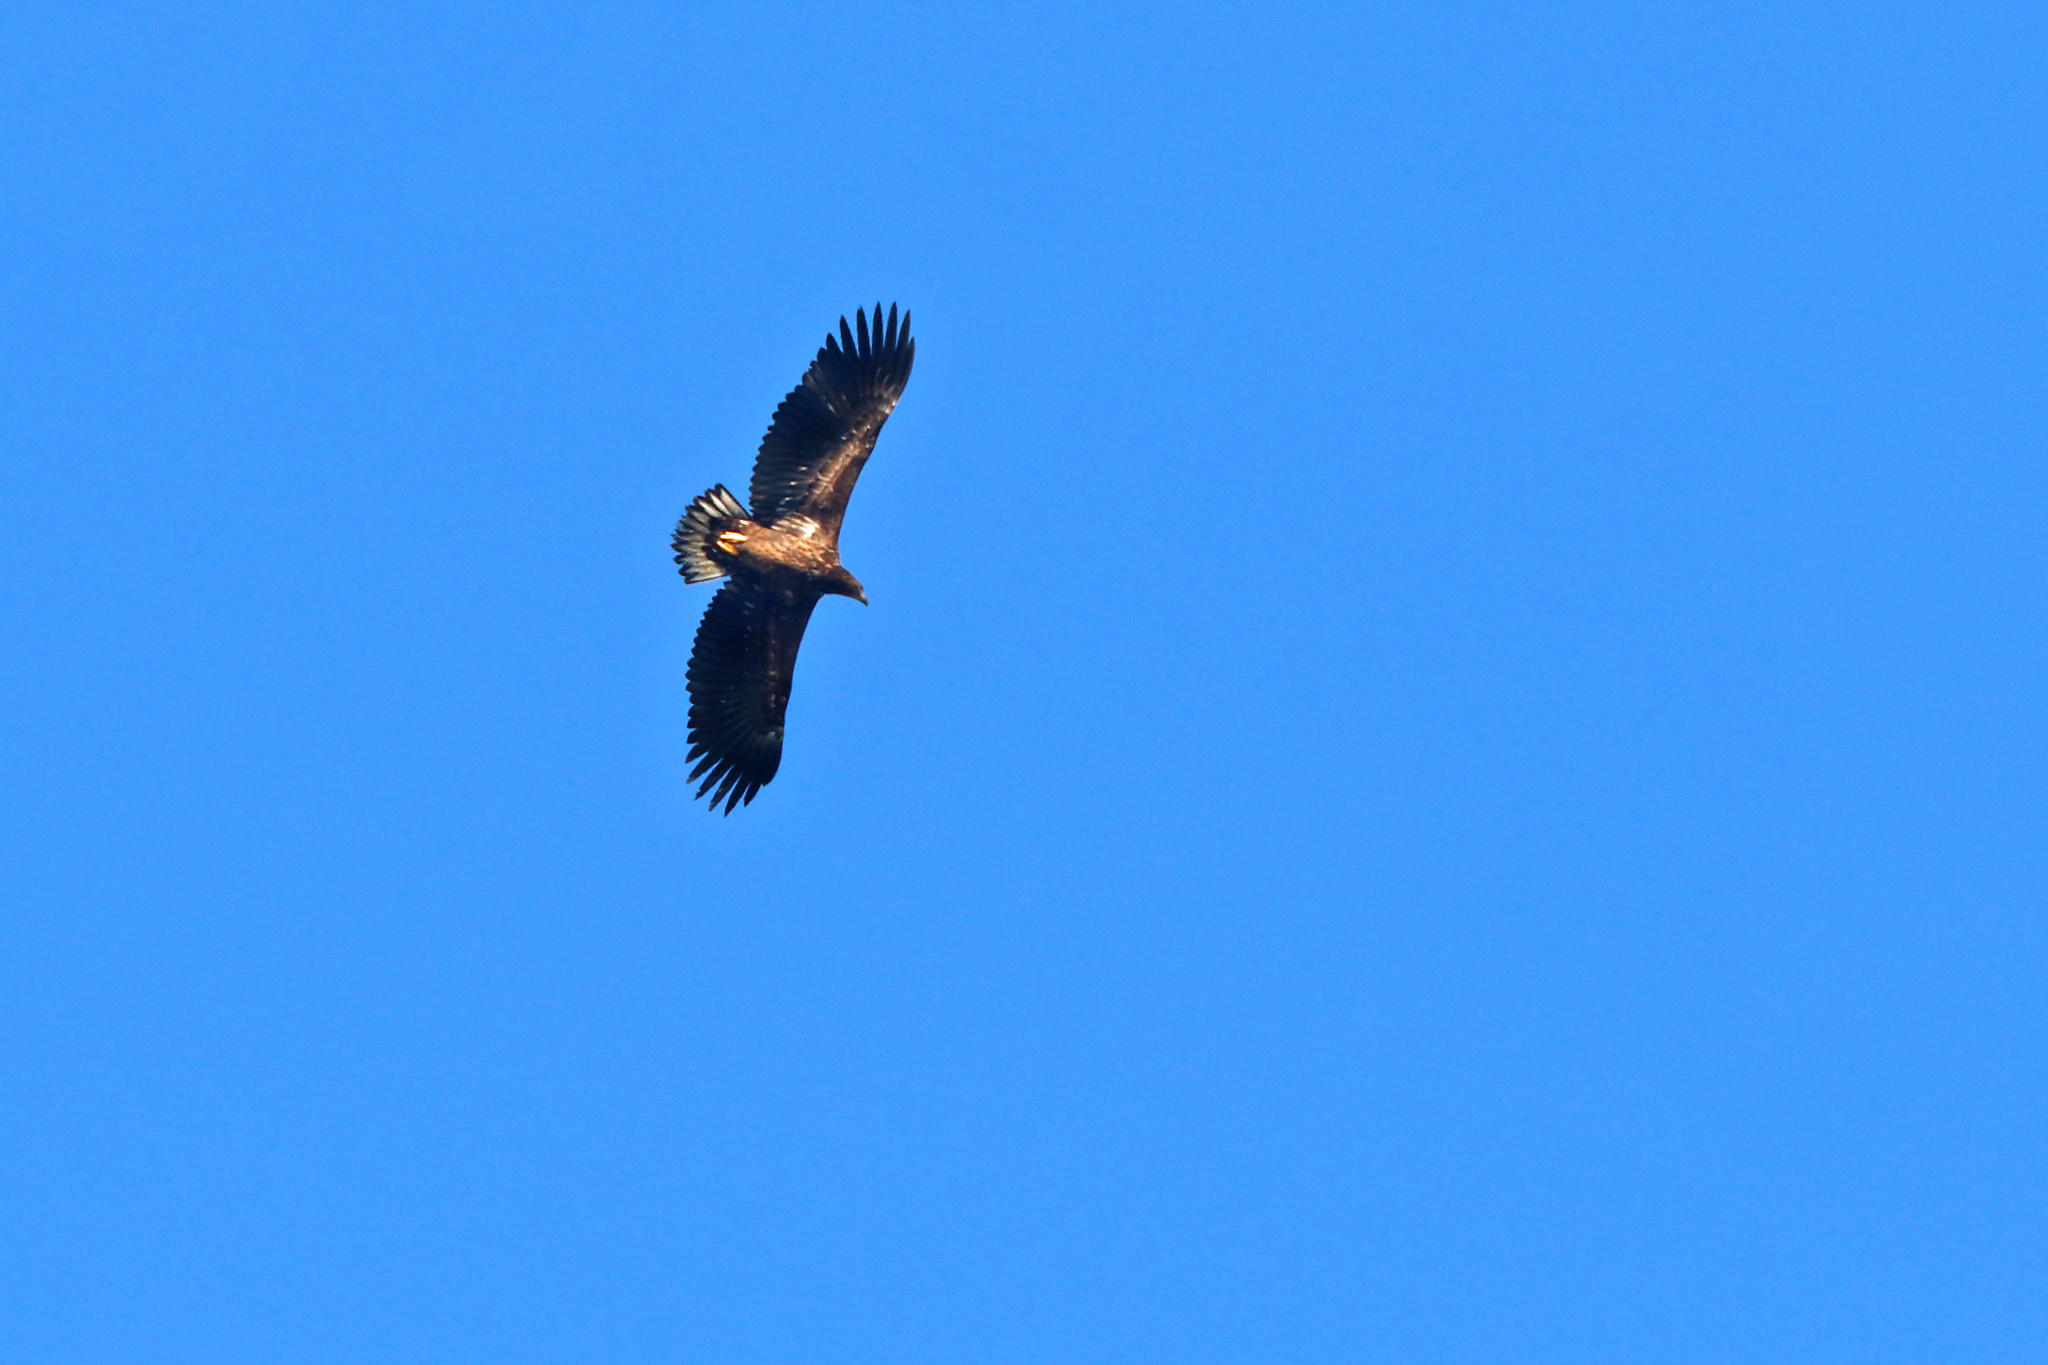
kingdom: Animalia
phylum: Chordata
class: Aves
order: Accipitriformes
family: Accipitridae
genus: Haliaeetus
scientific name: Haliaeetus albicilla
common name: White-tailed eagle
